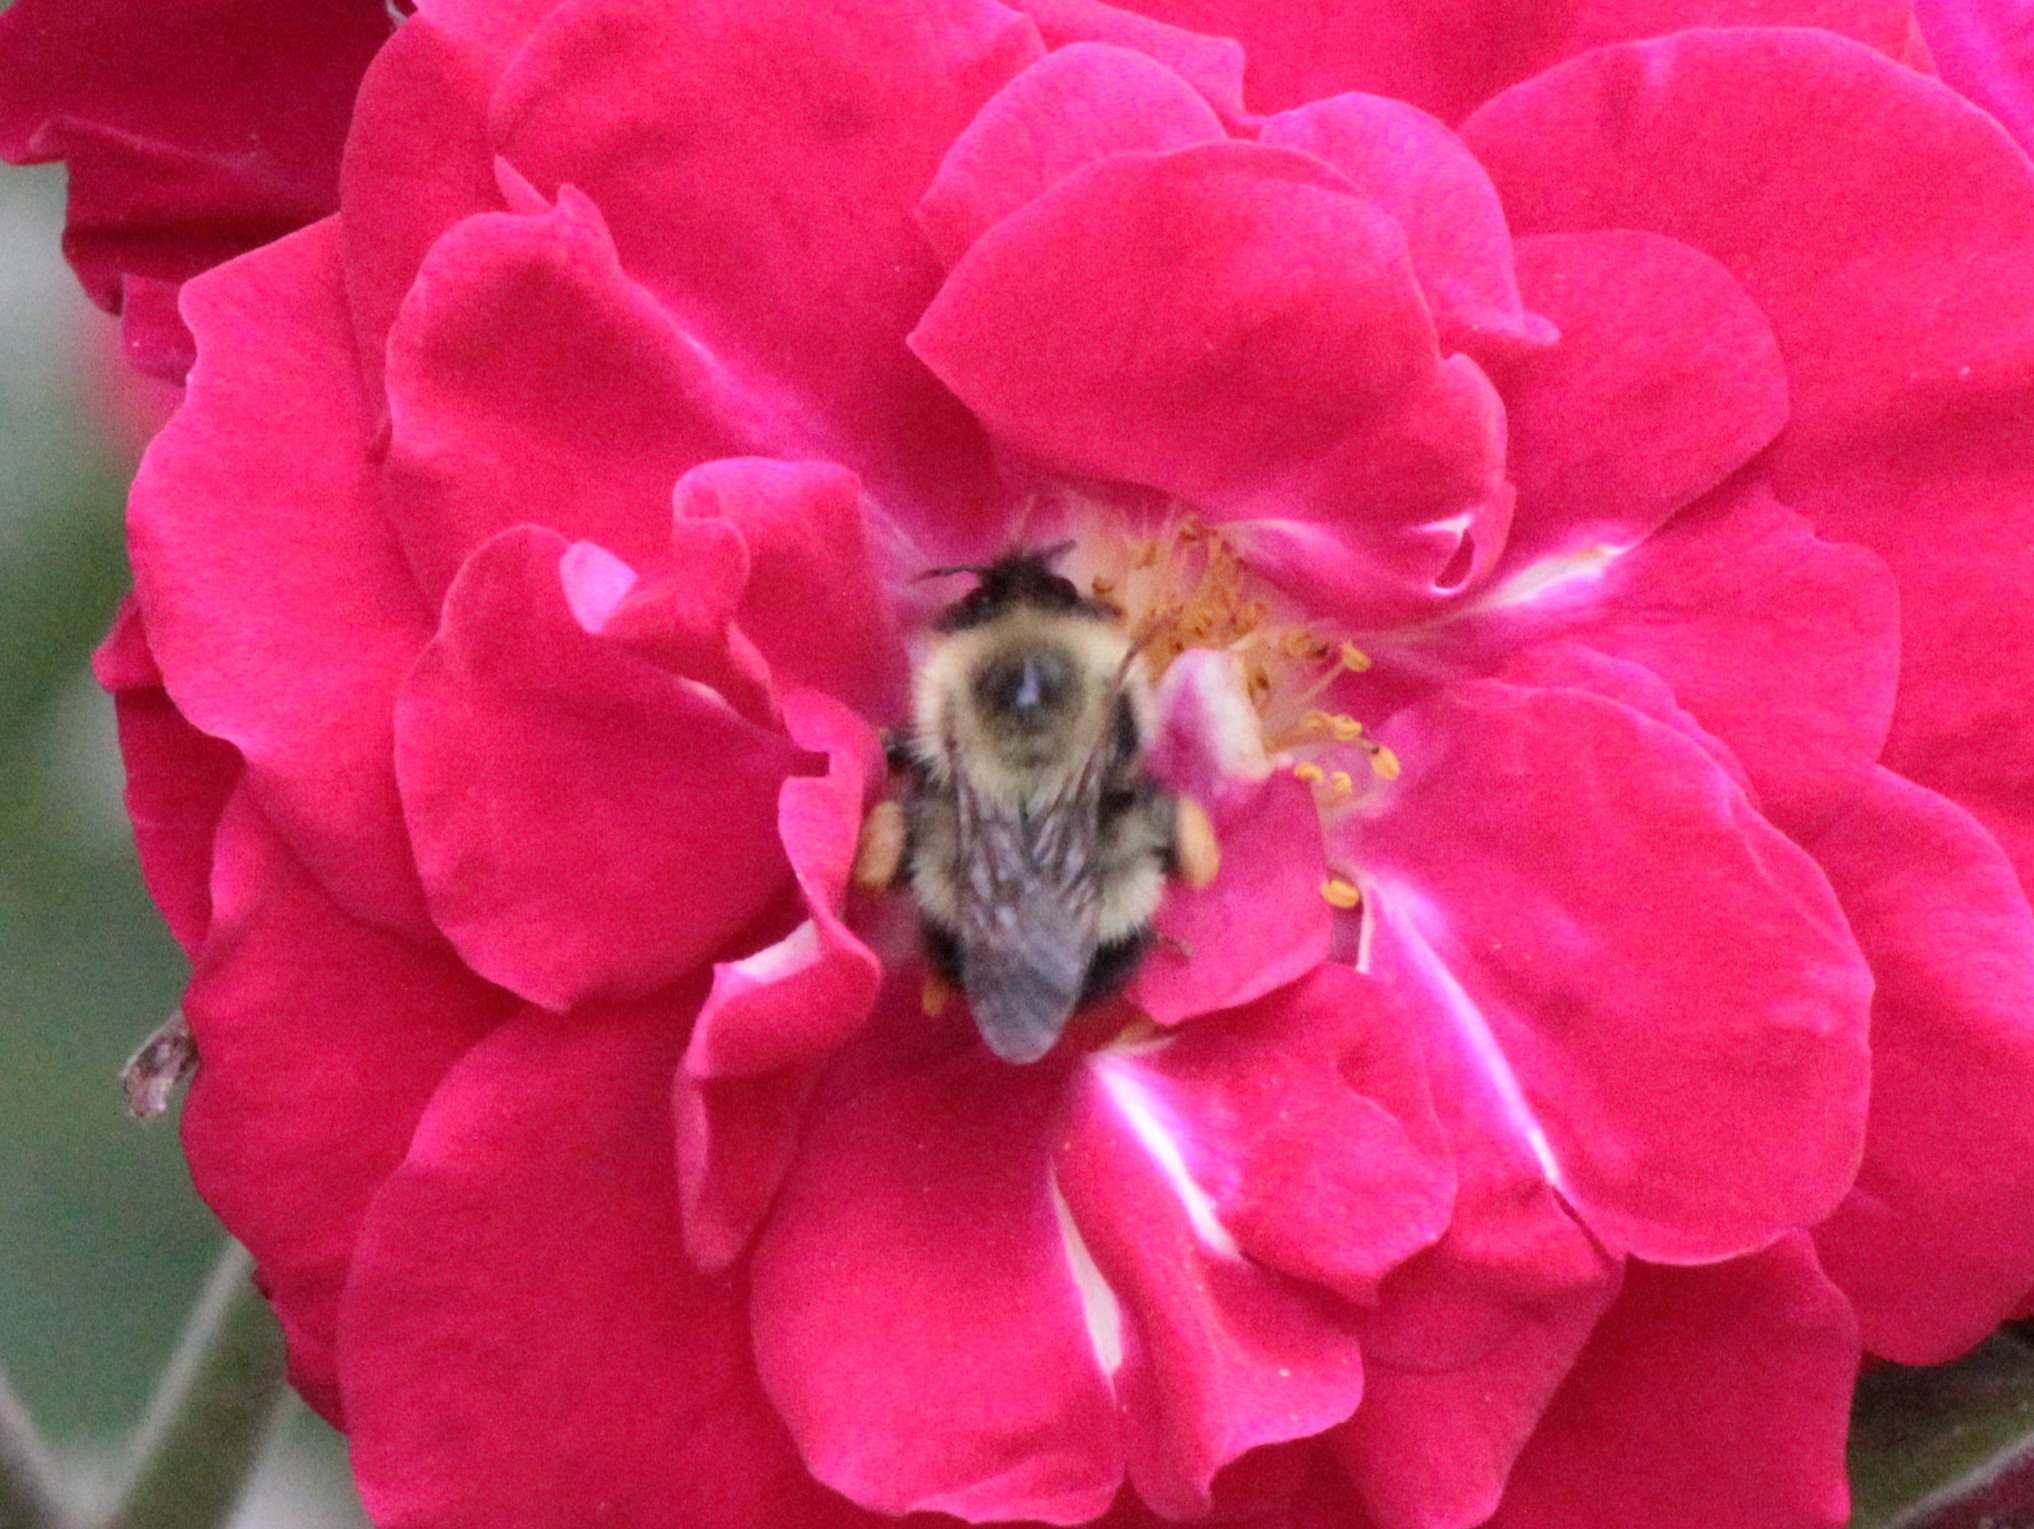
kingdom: Animalia
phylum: Arthropoda
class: Insecta
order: Hymenoptera
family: Apidae
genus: Pyrobombus
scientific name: Pyrobombus
